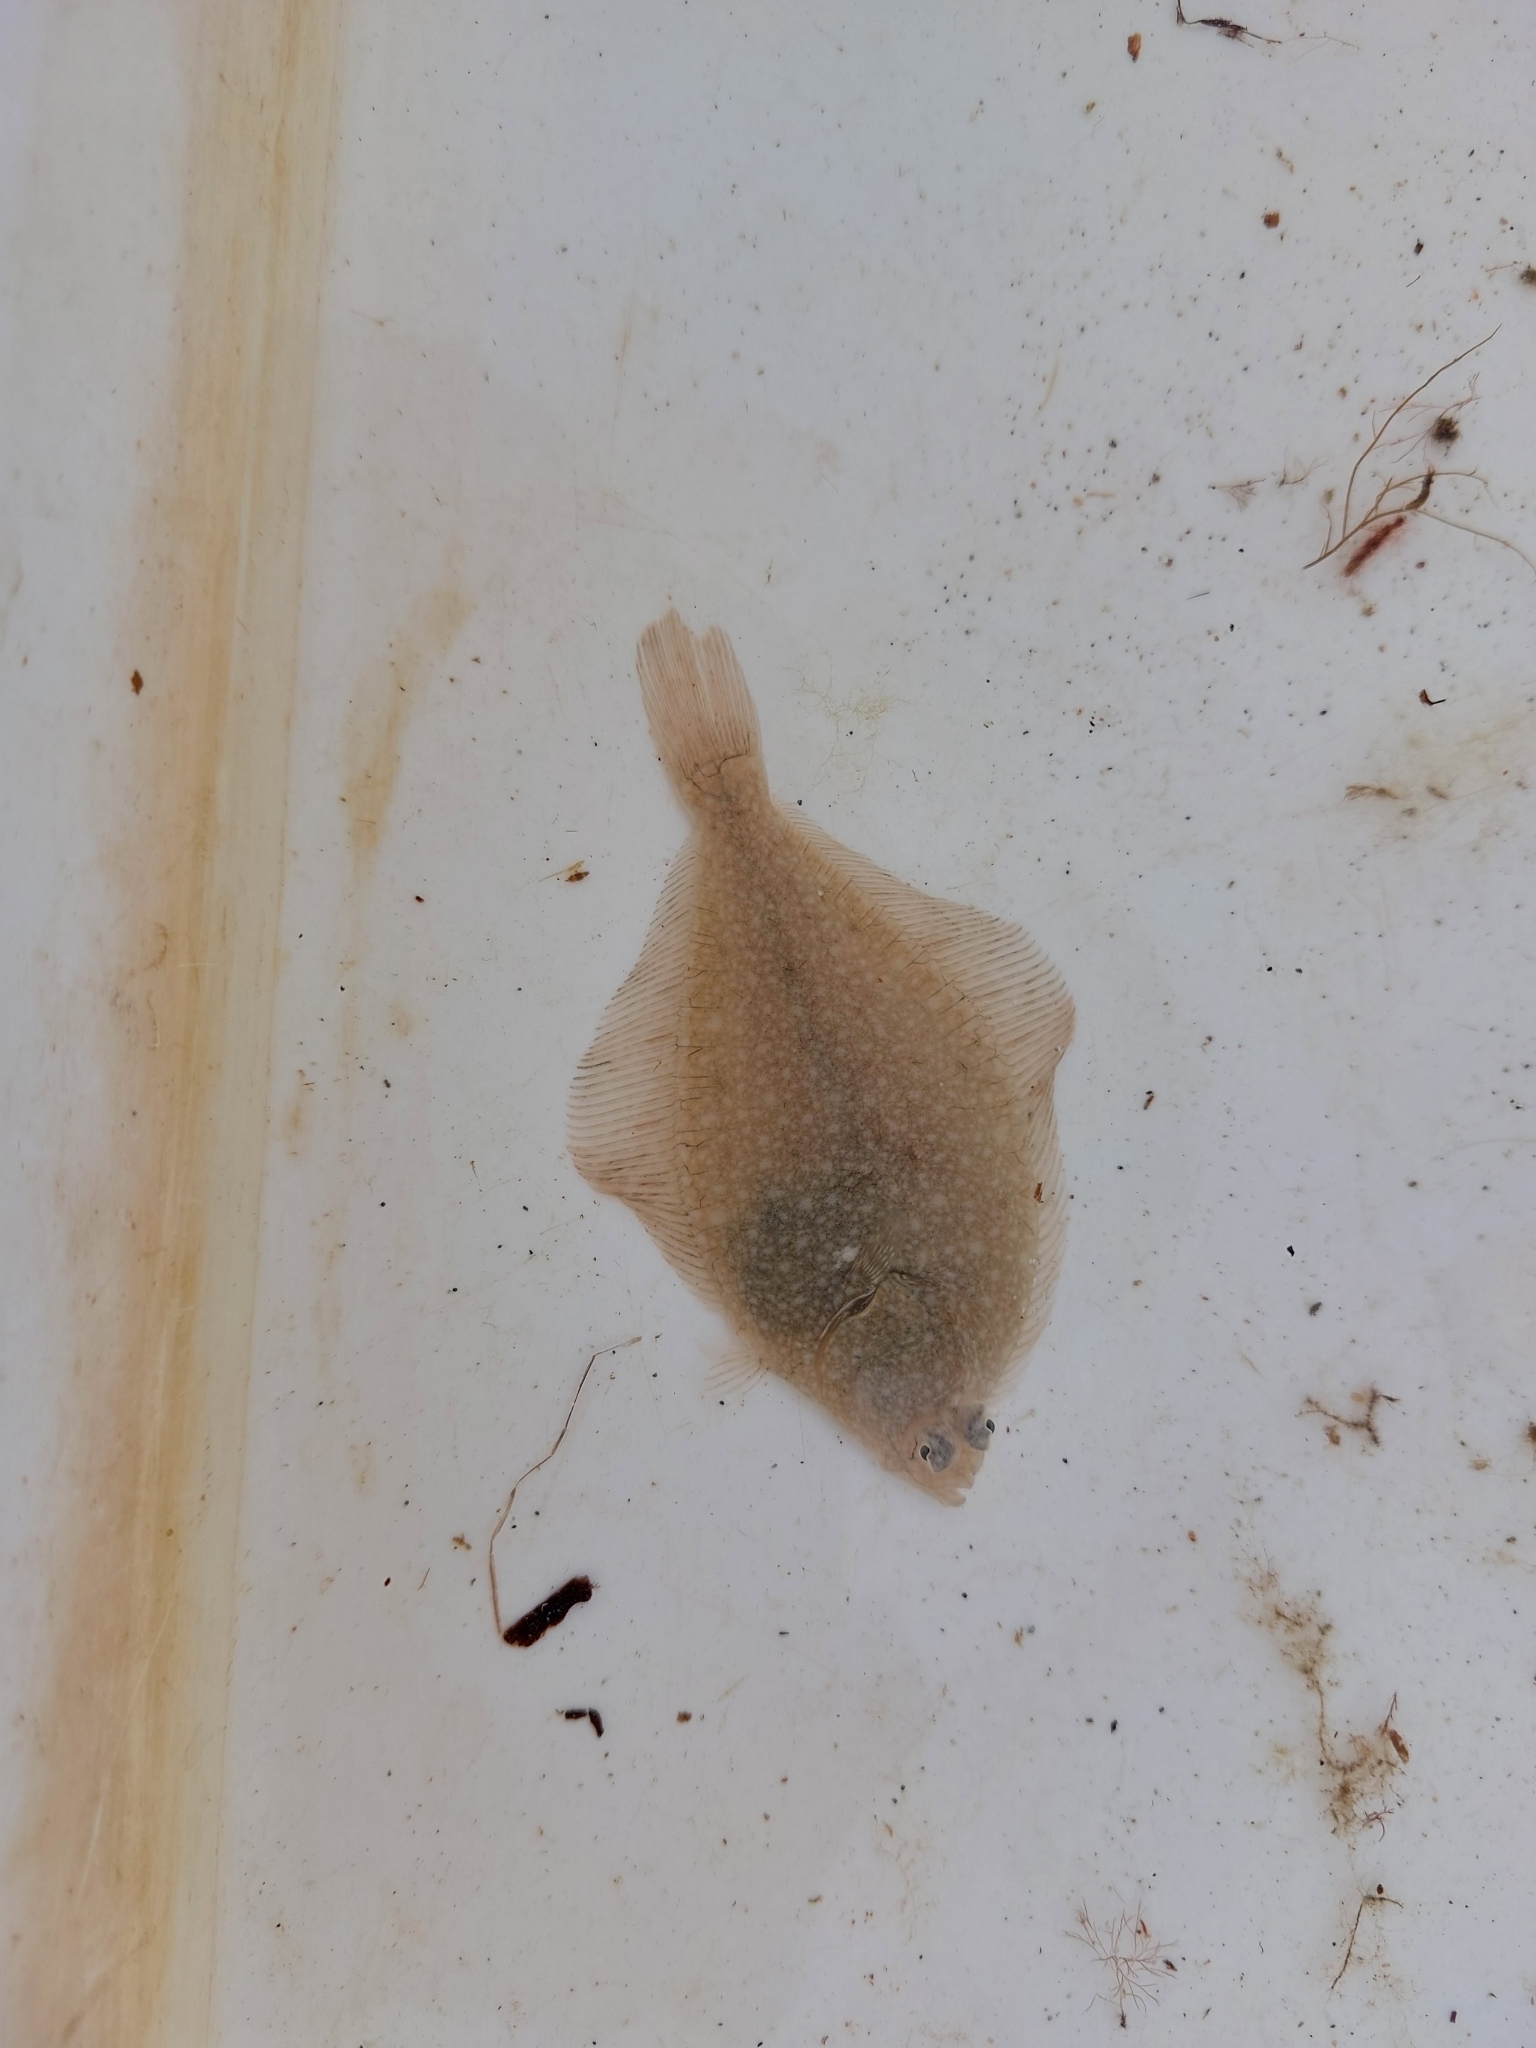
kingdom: Animalia
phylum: Chordata
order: Pleuronectiformes
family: Pleuronectidae
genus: Platichthys
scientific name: Platichthys flesus
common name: European flounder
